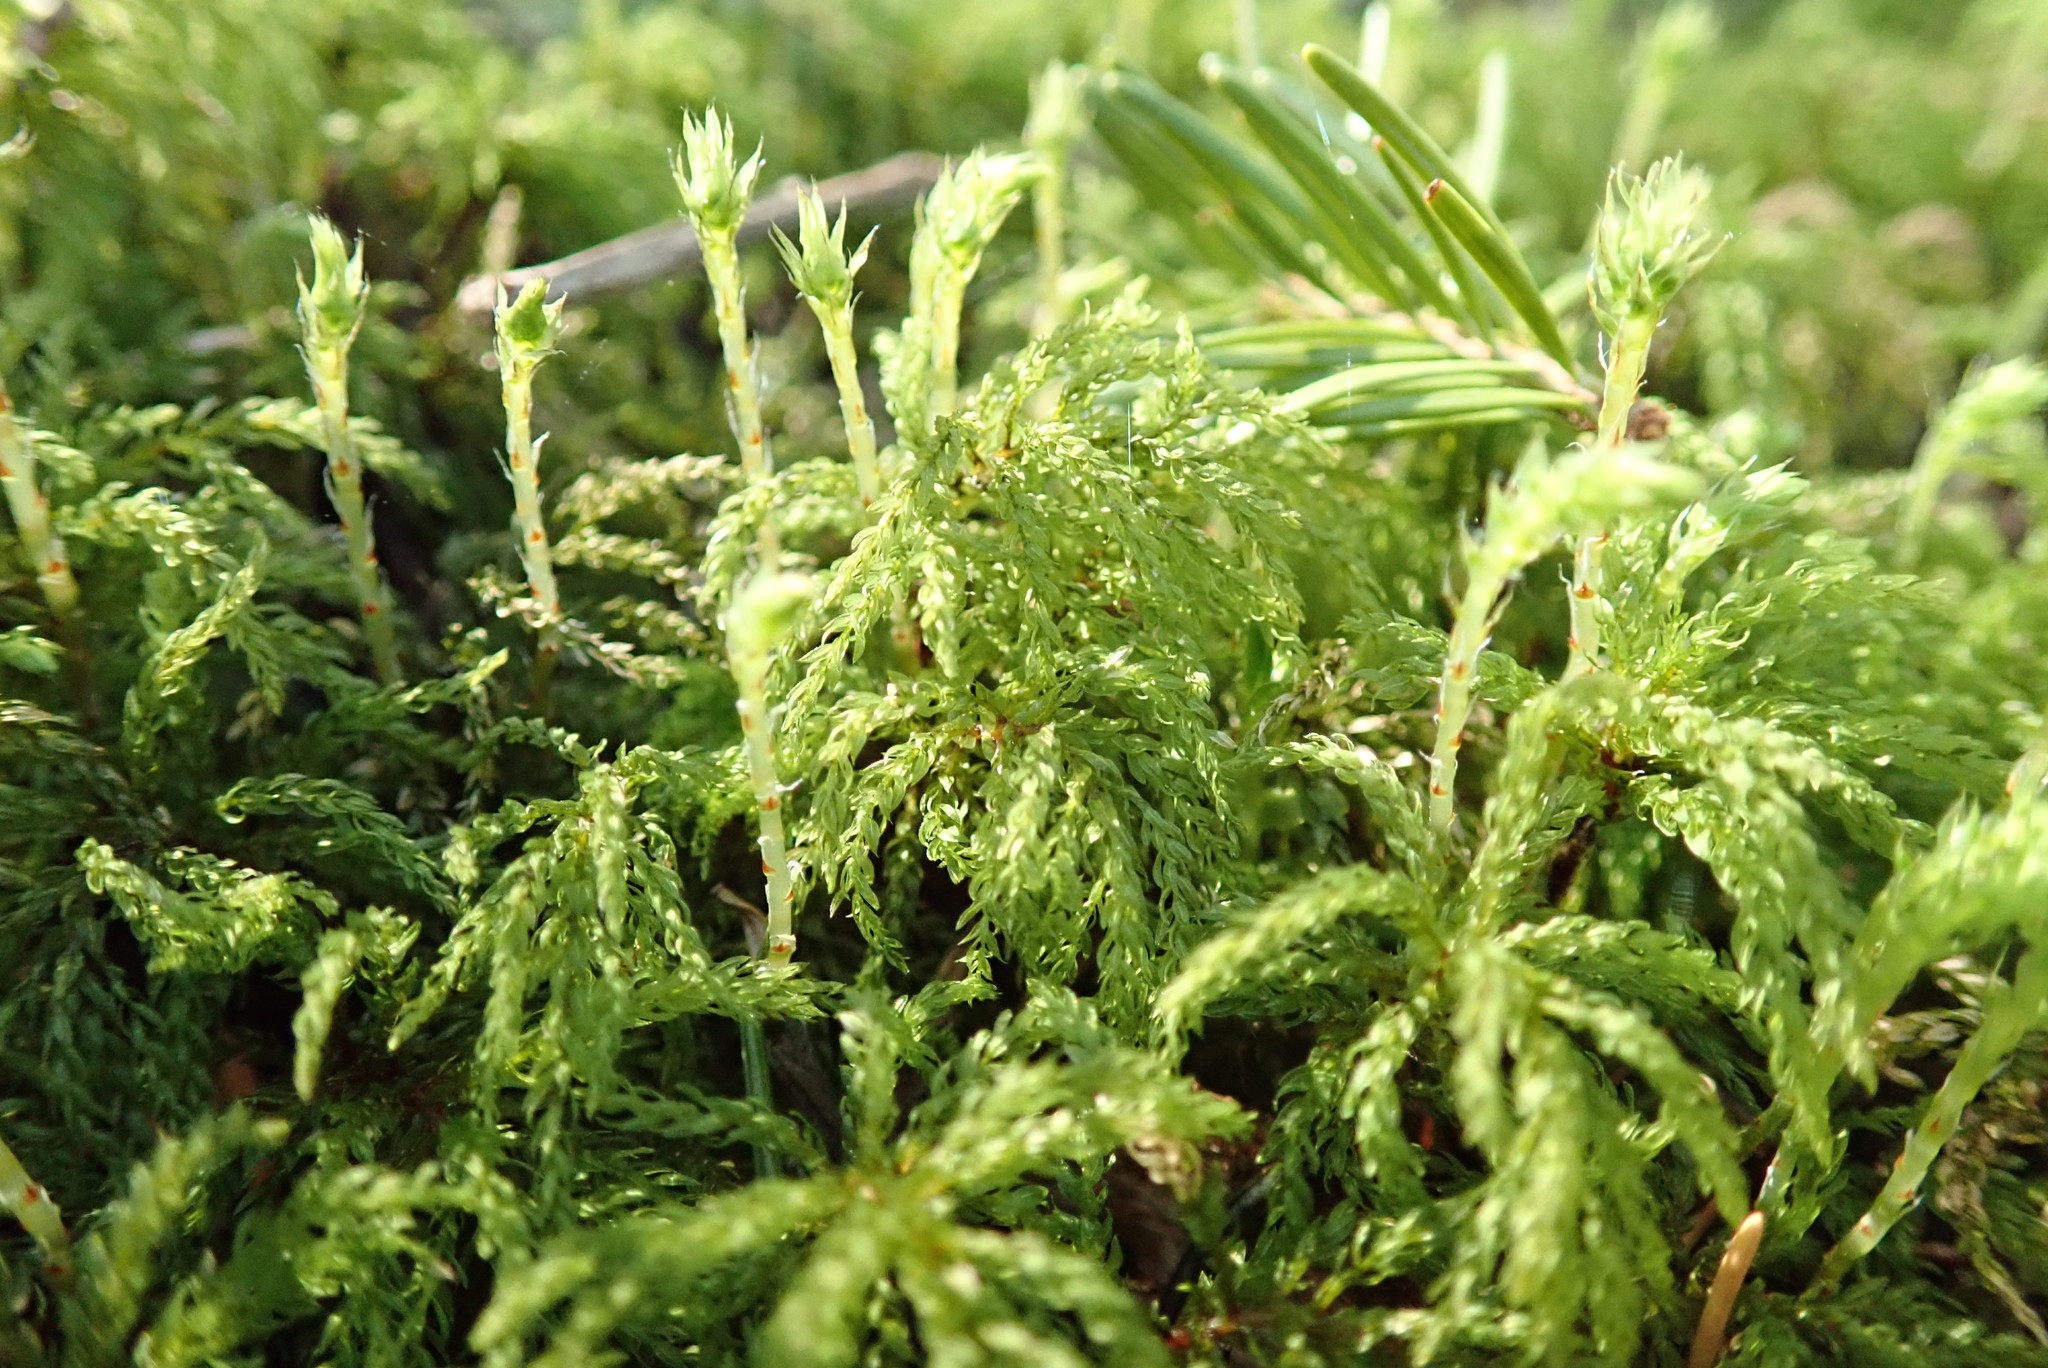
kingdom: Plantae
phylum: Bryophyta
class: Bryopsida
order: Bryales
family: Mniaceae
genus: Leucolepis
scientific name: Leucolepis acanthoneura
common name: Leucolepis umbrella moss
